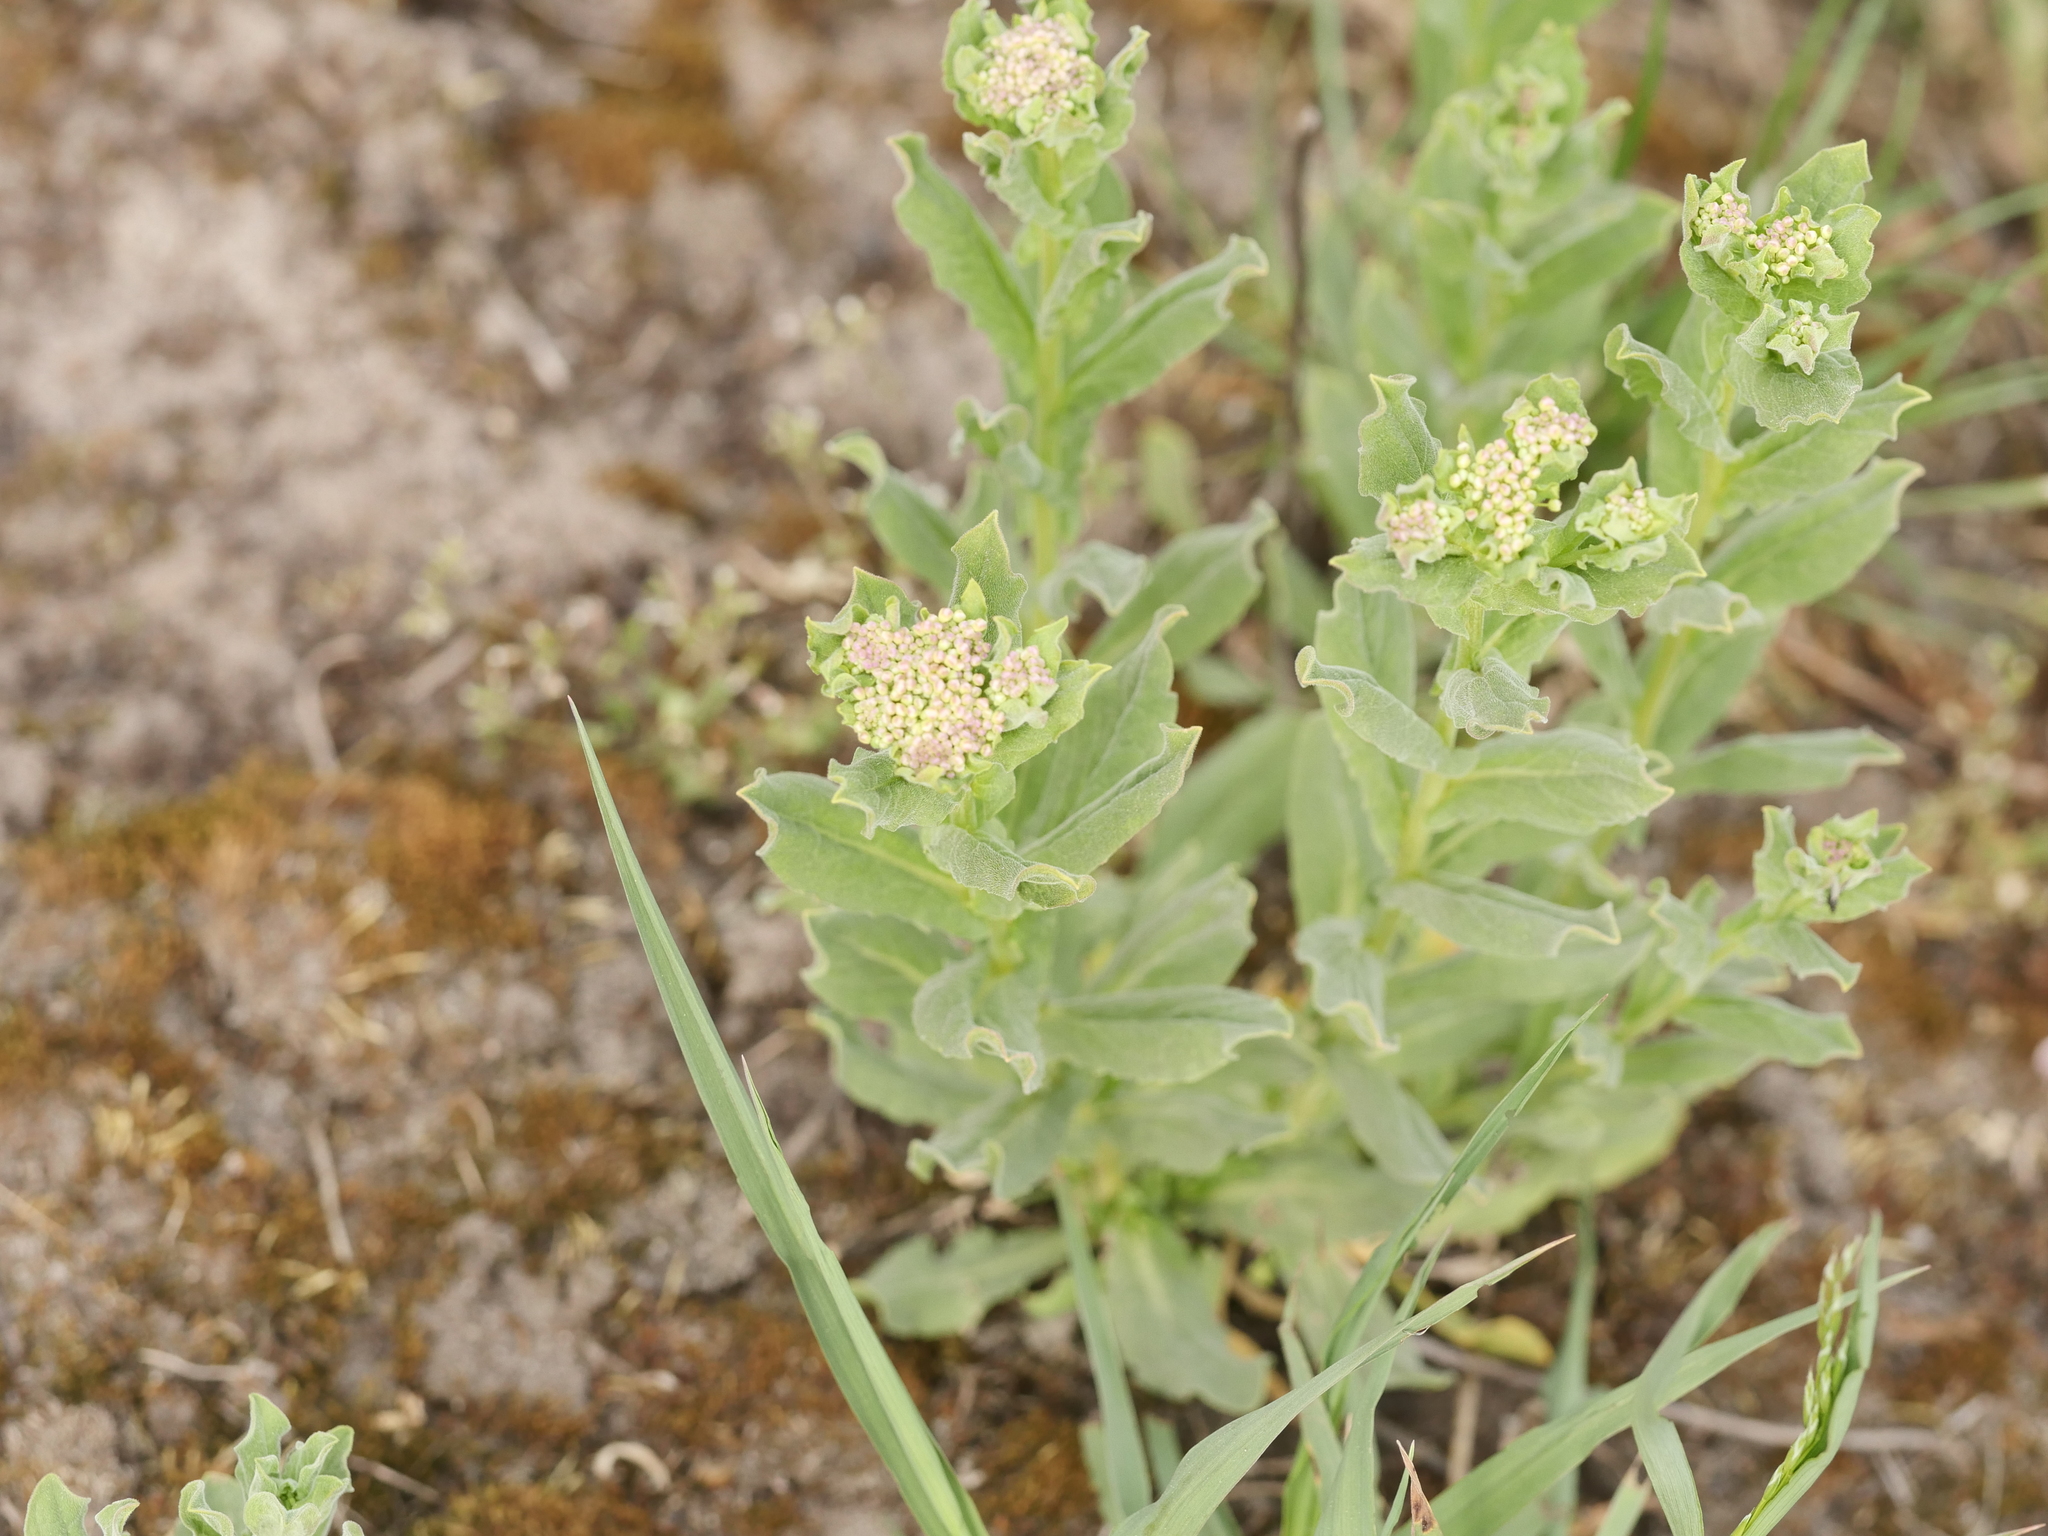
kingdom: Plantae
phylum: Tracheophyta
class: Magnoliopsida
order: Brassicales
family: Brassicaceae
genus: Lepidium
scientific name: Lepidium draba
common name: Hoary cress
